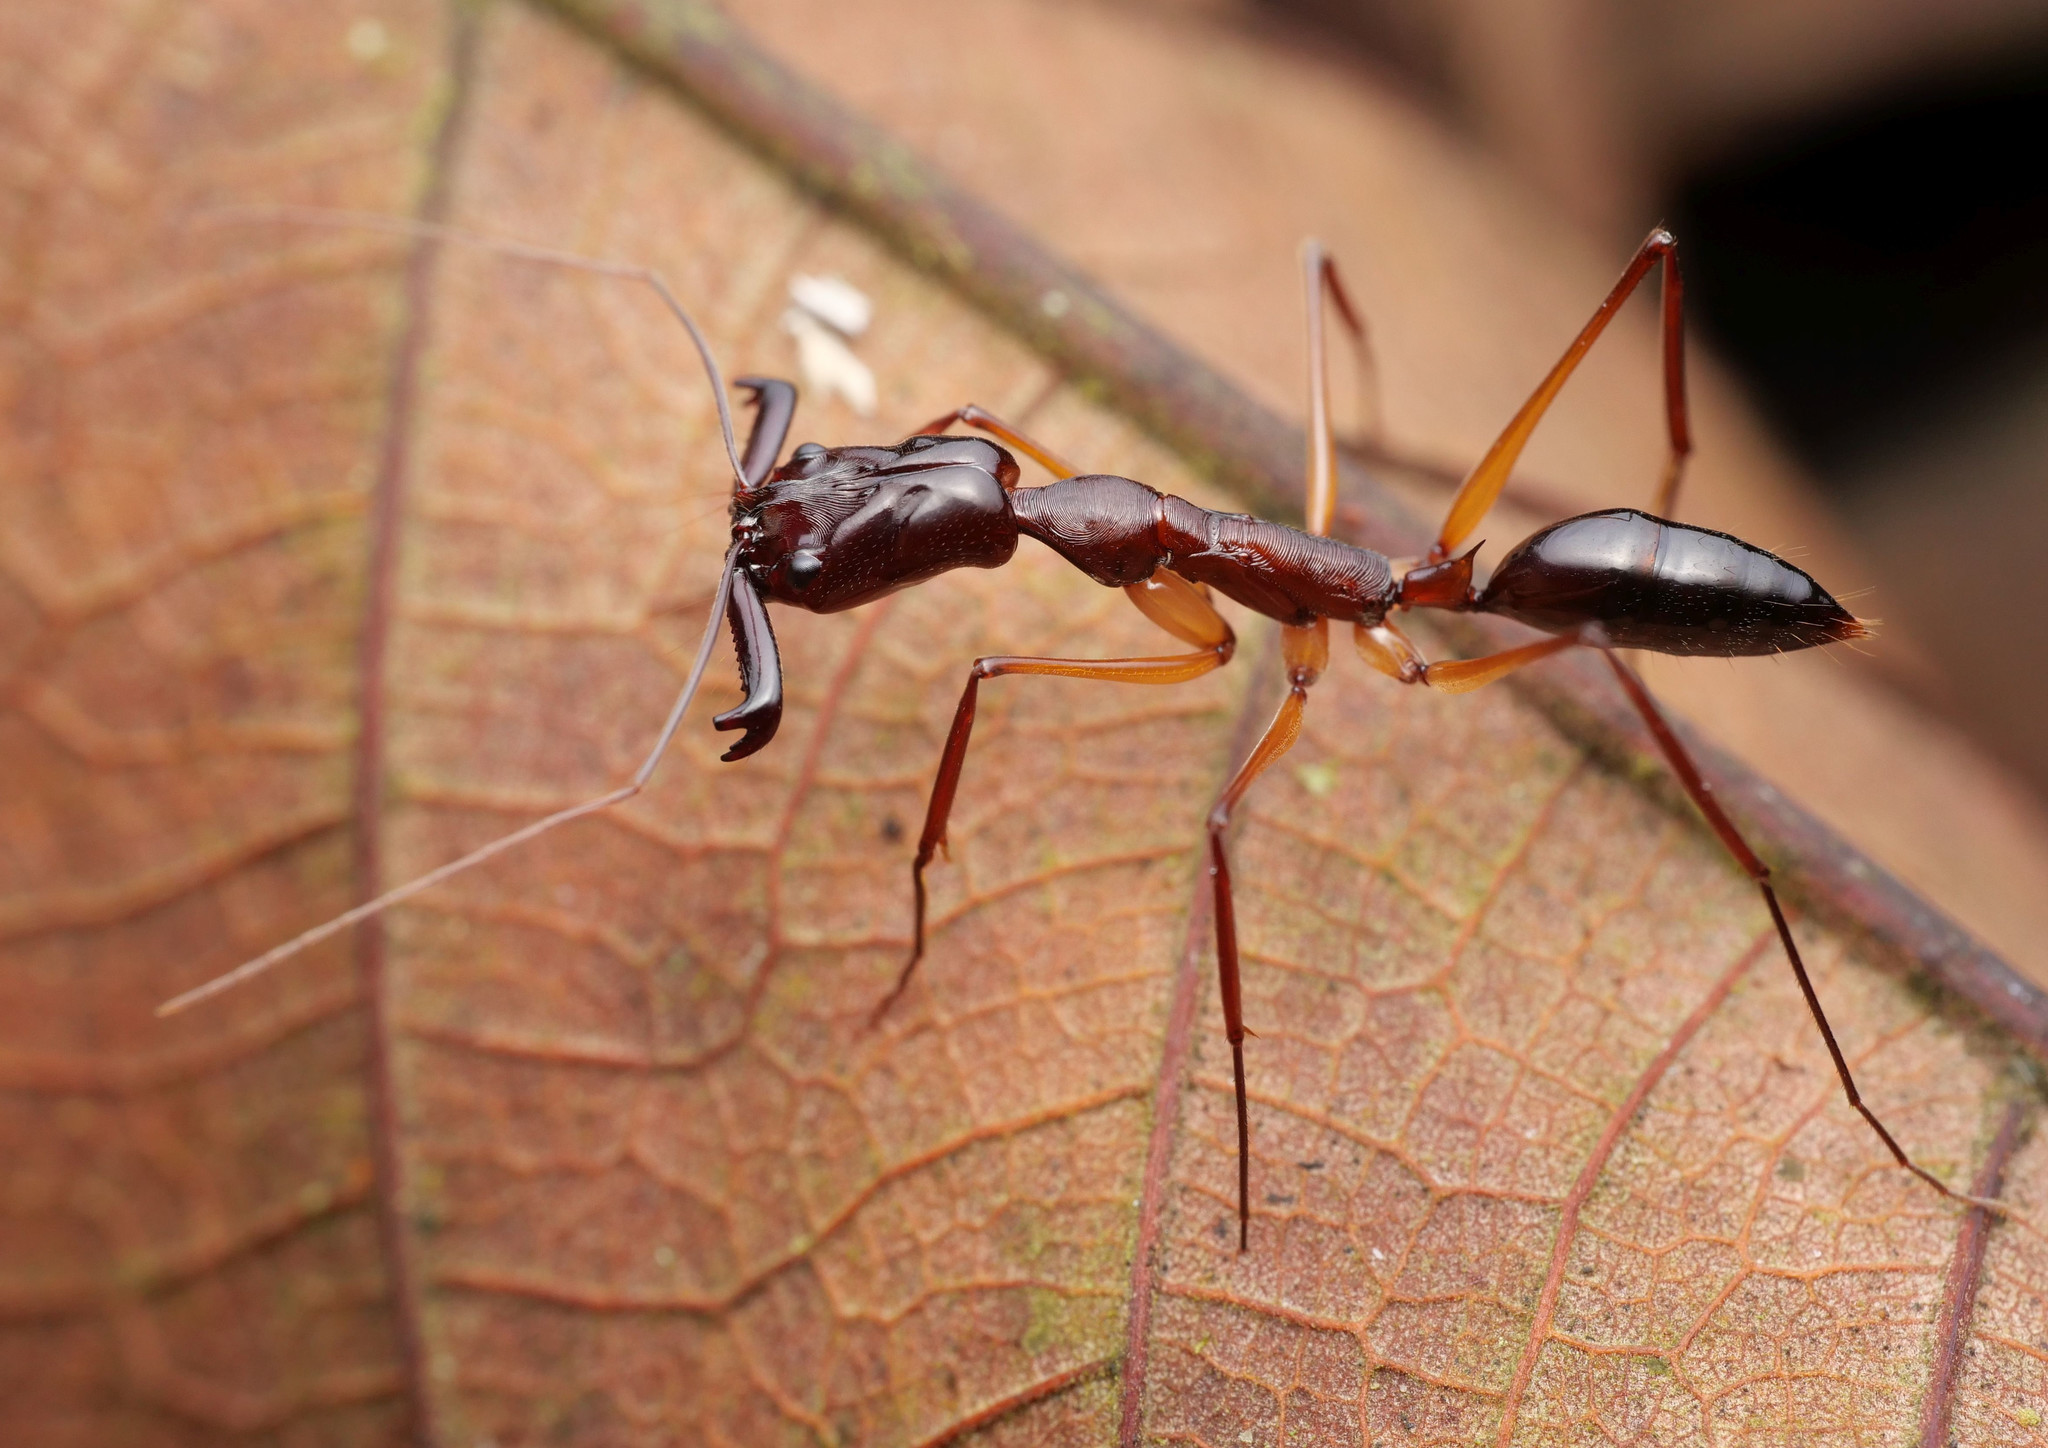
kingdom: Animalia
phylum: Arthropoda
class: Insecta
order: Hymenoptera
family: Formicidae
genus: Odontomachus
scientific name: Odontomachus mormo
